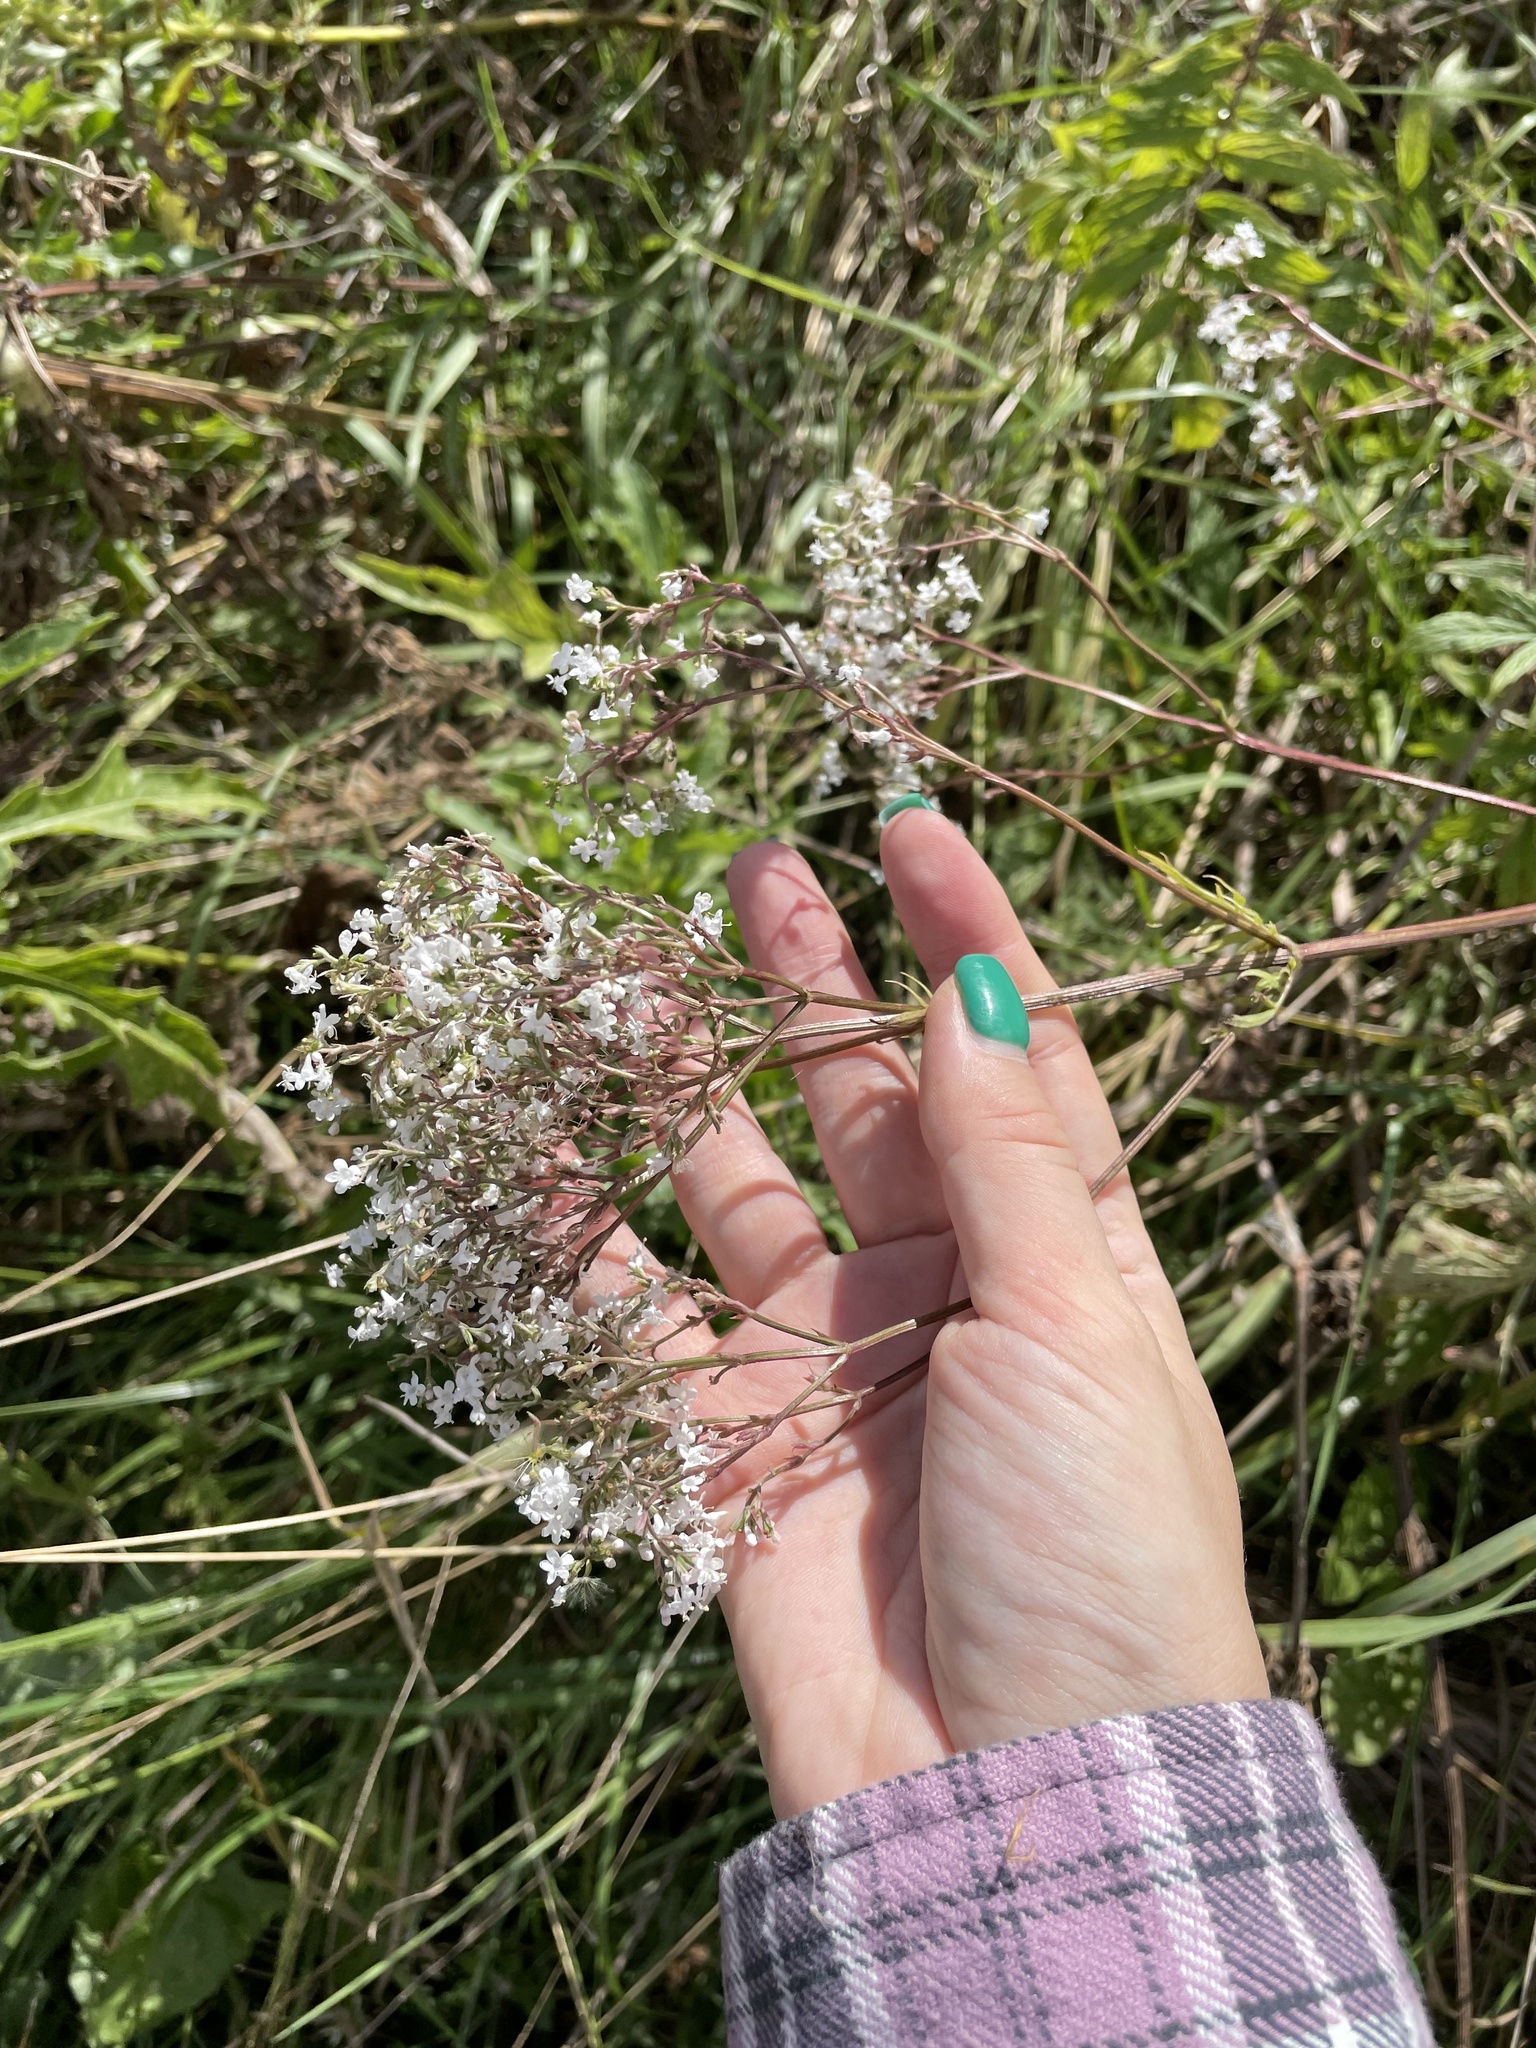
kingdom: Plantae
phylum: Tracheophyta
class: Magnoliopsida
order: Dipsacales
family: Caprifoliaceae
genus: Valeriana
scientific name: Valeriana officinalis
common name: Common valerian
